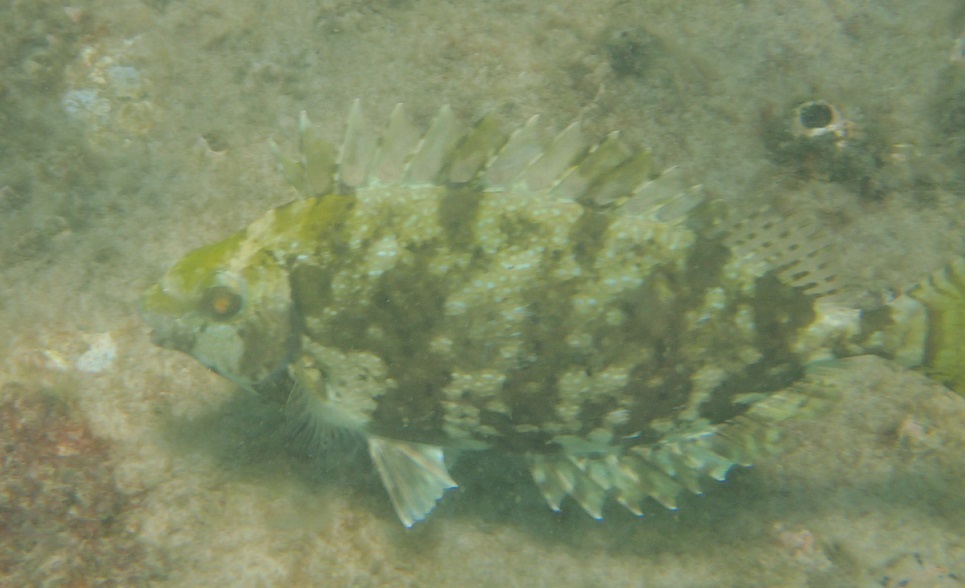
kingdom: Animalia
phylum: Chordata
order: Perciformes
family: Siganidae
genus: Siganus
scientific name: Siganus fuscescens
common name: Dusky rabbitfish
